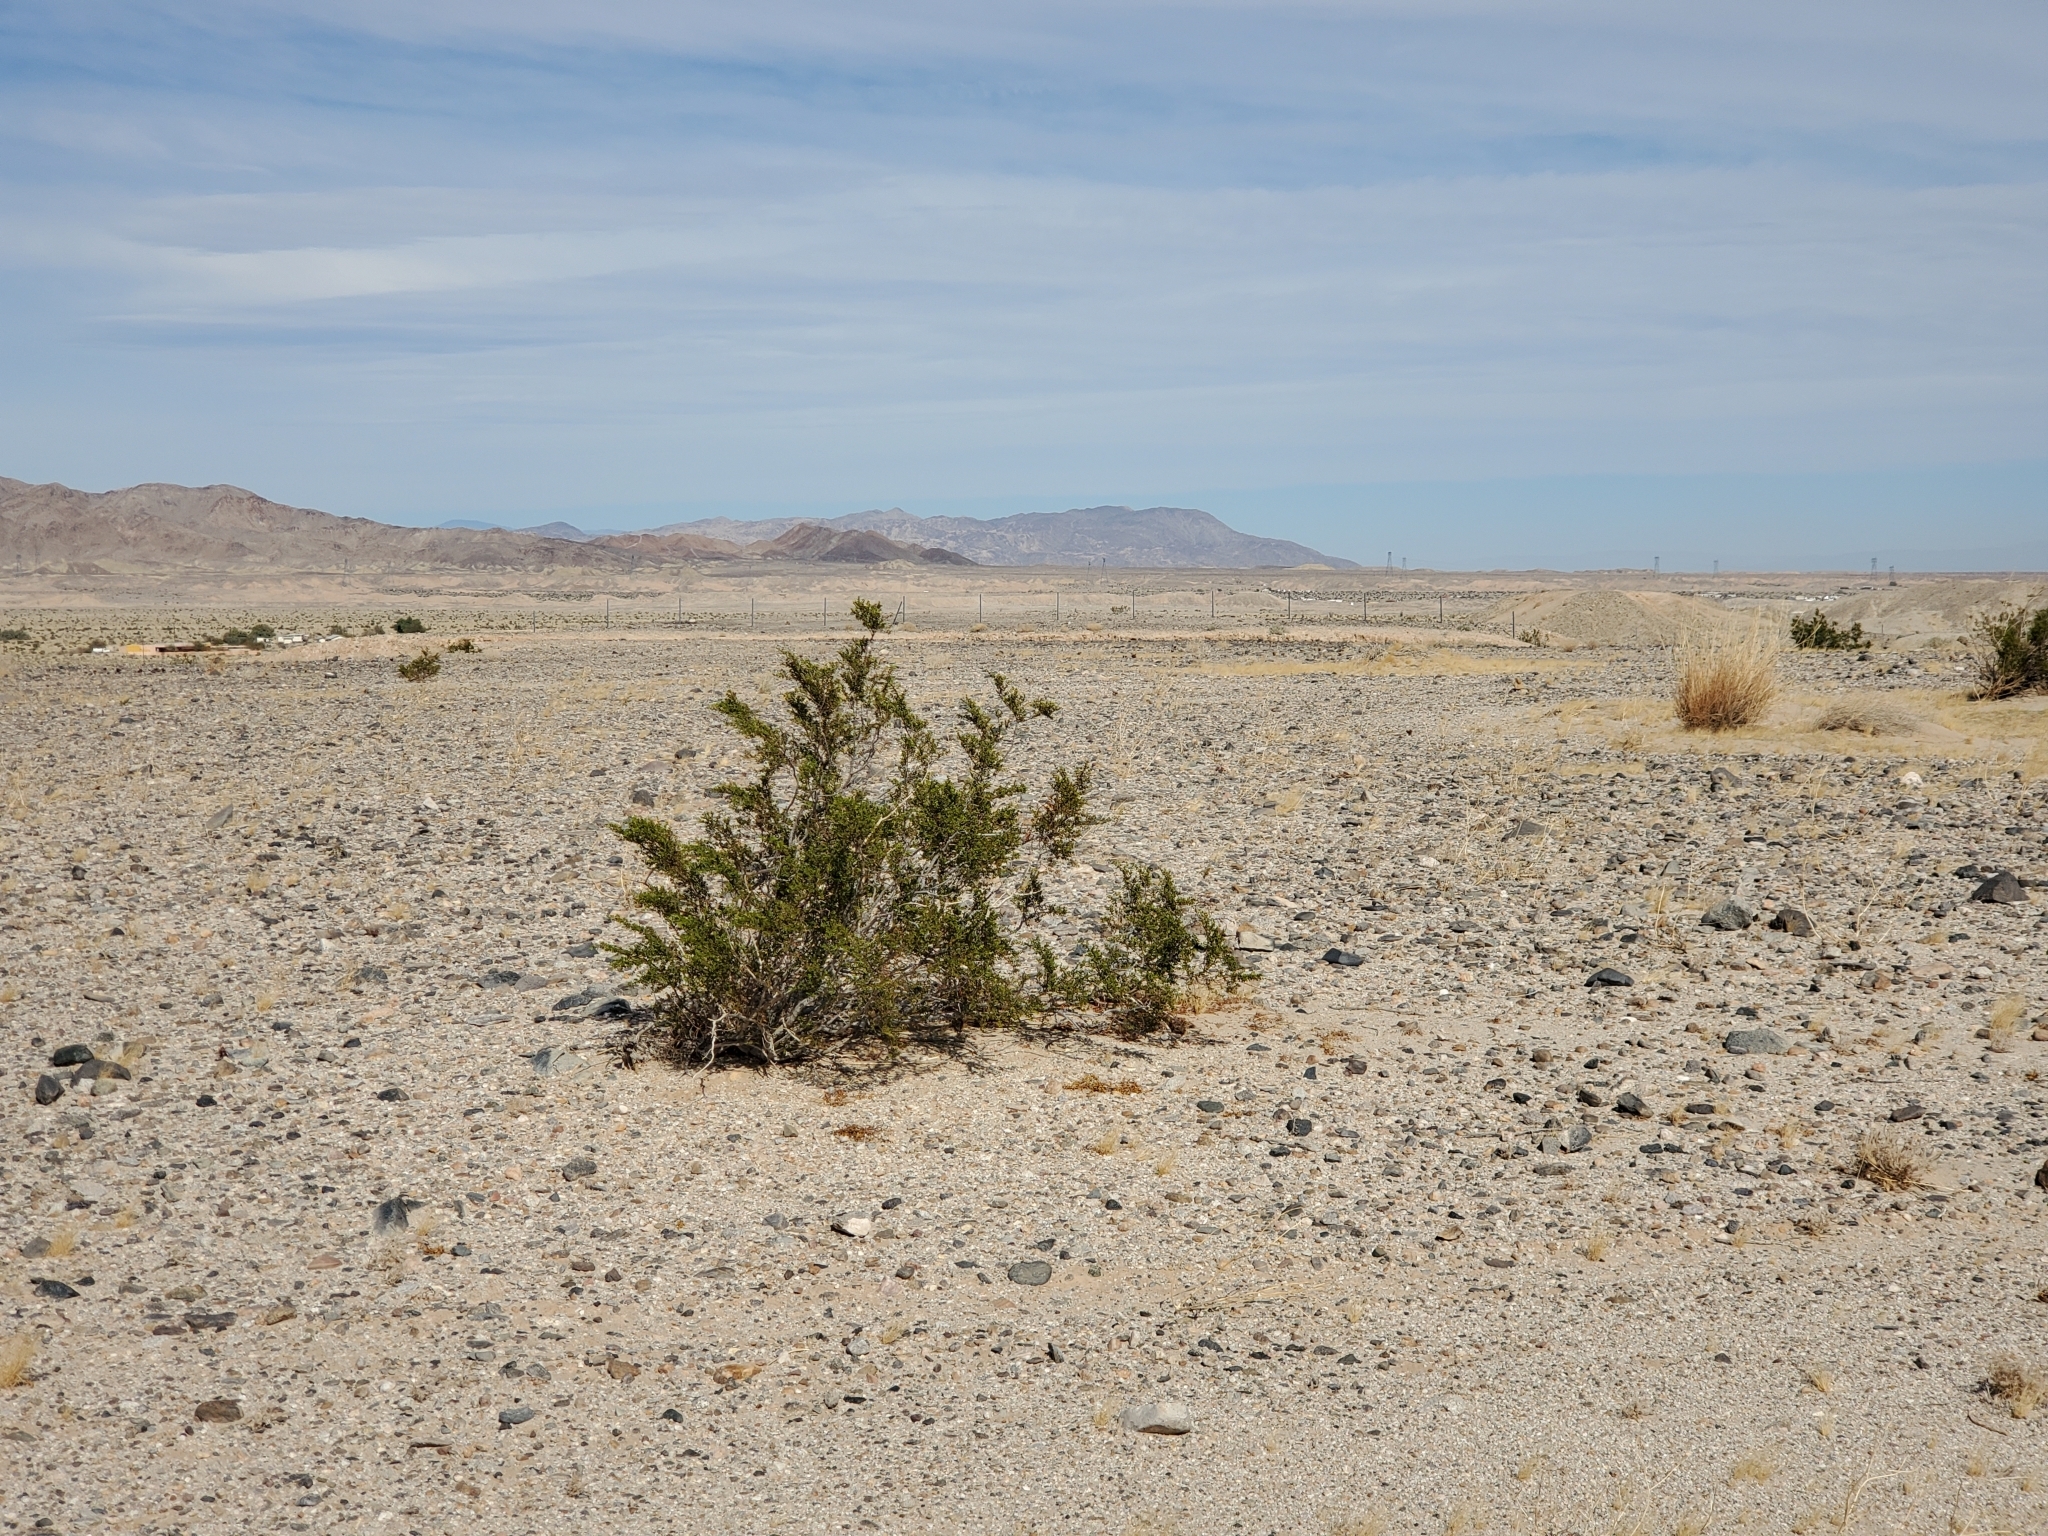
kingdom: Plantae
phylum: Tracheophyta
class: Magnoliopsida
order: Zygophyllales
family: Zygophyllaceae
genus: Larrea
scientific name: Larrea tridentata
